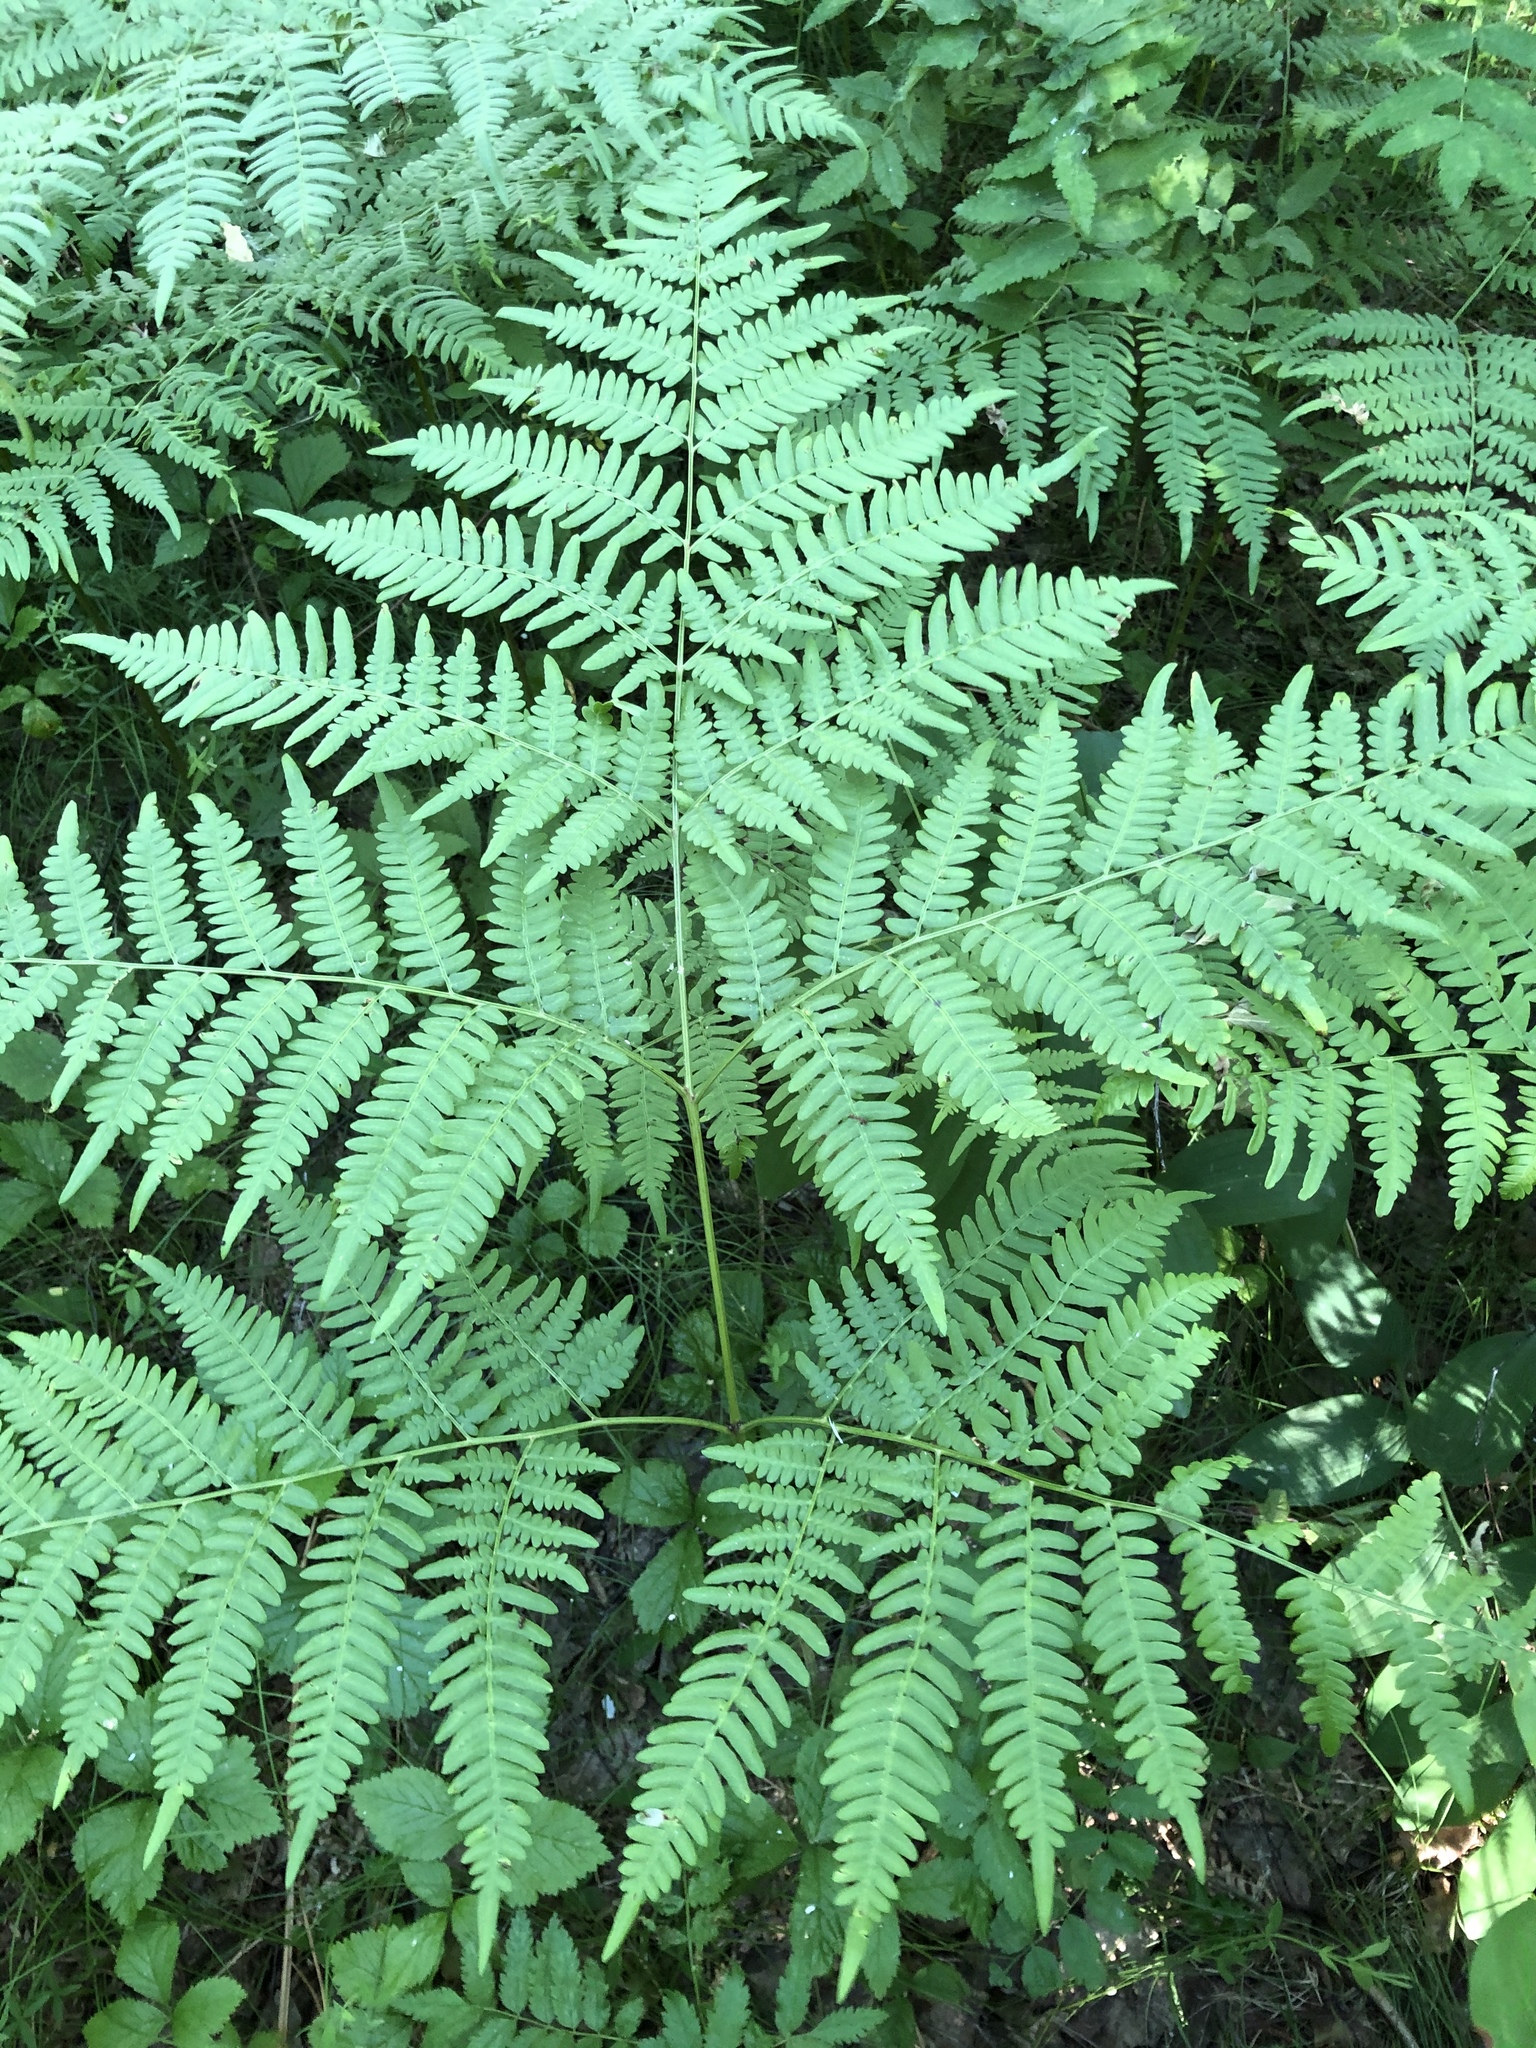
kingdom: Plantae
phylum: Tracheophyta
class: Polypodiopsida
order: Polypodiales
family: Dennstaedtiaceae
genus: Pteridium
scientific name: Pteridium aquilinum
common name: Bracken
